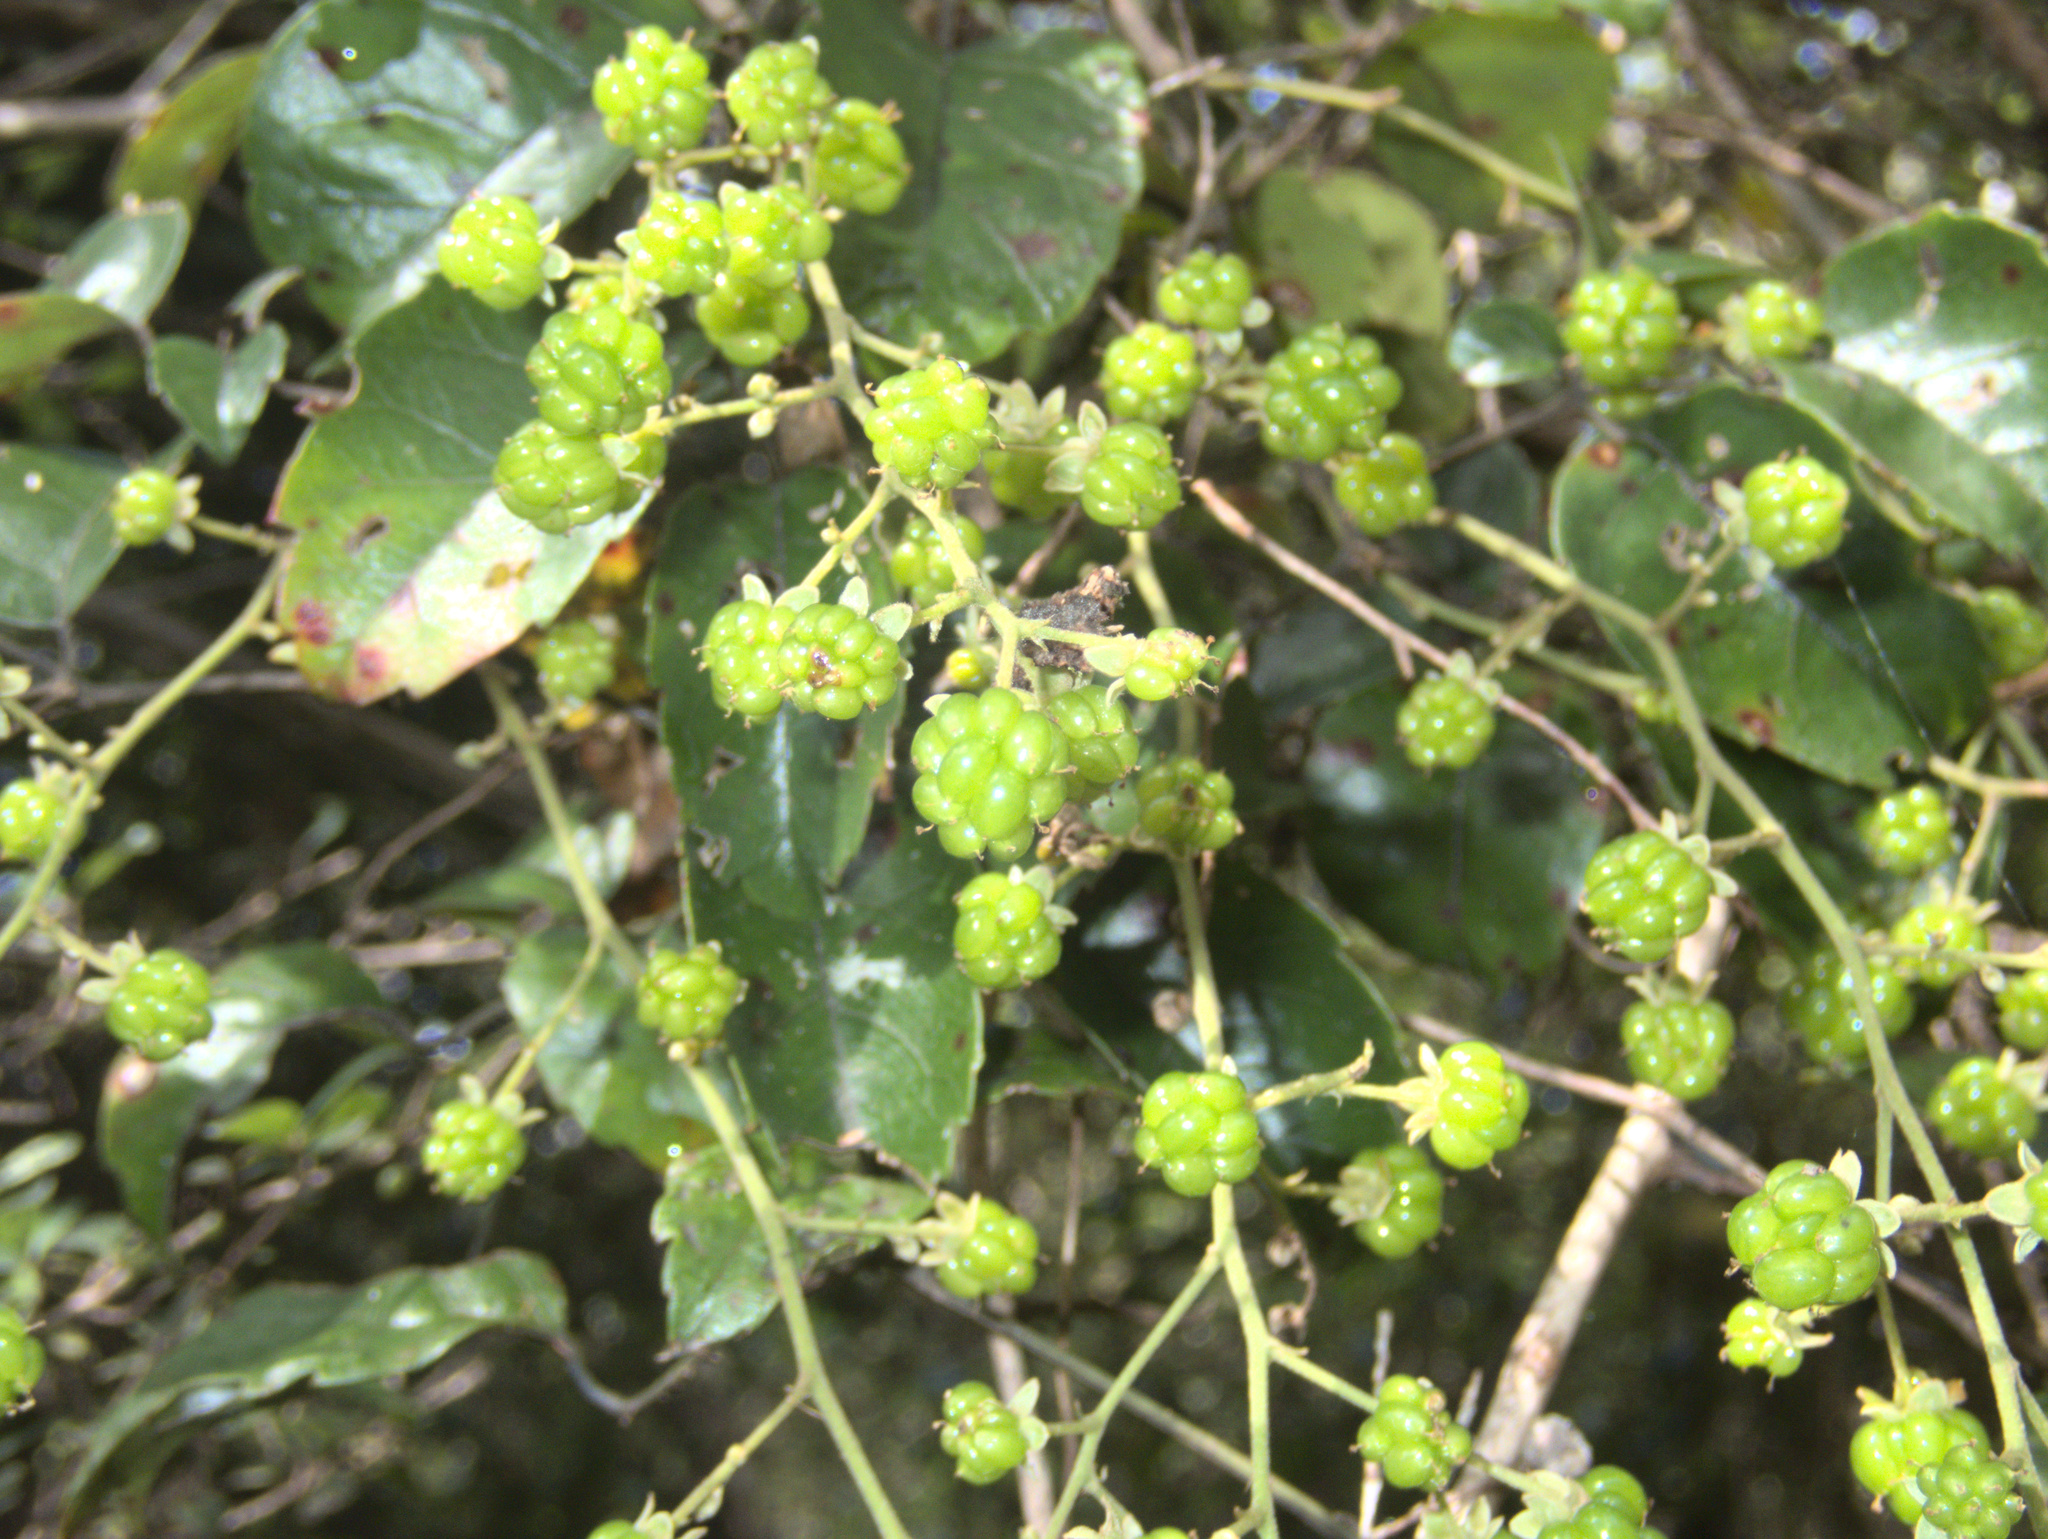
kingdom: Plantae
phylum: Tracheophyta
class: Magnoliopsida
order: Rosales
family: Rosaceae
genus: Rubus
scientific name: Rubus australis
